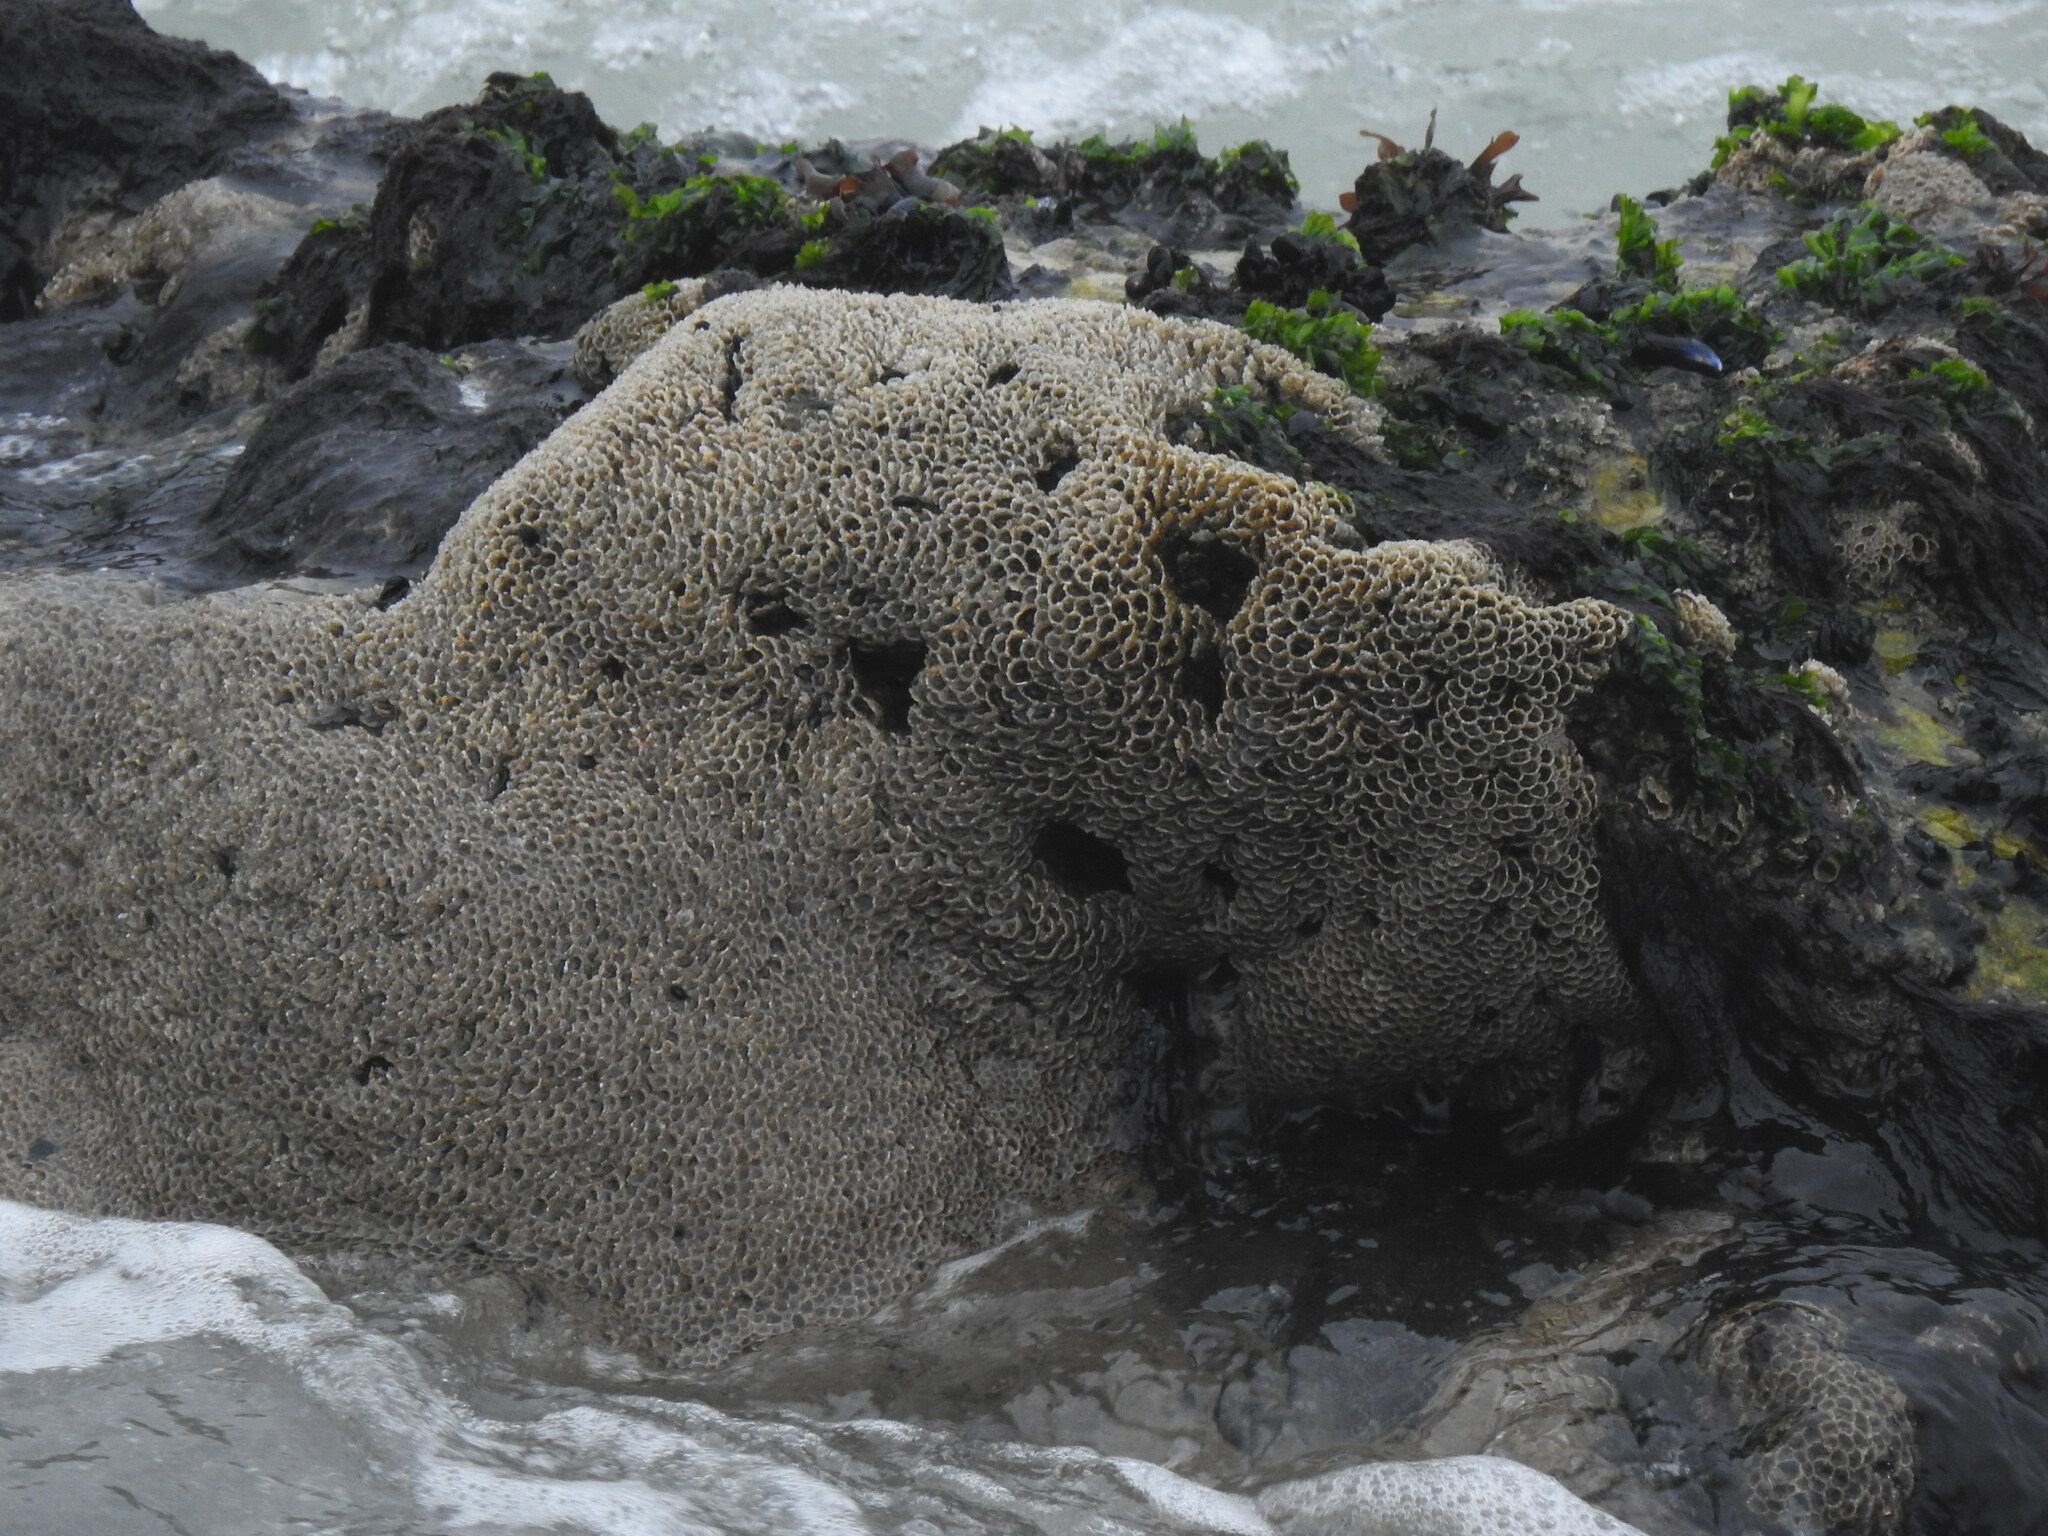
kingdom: Animalia
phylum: Annelida
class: Polychaeta
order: Sabellida
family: Sabellariidae
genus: Sabellaria
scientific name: Sabellaria alveolata
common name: Honeycomb worm
